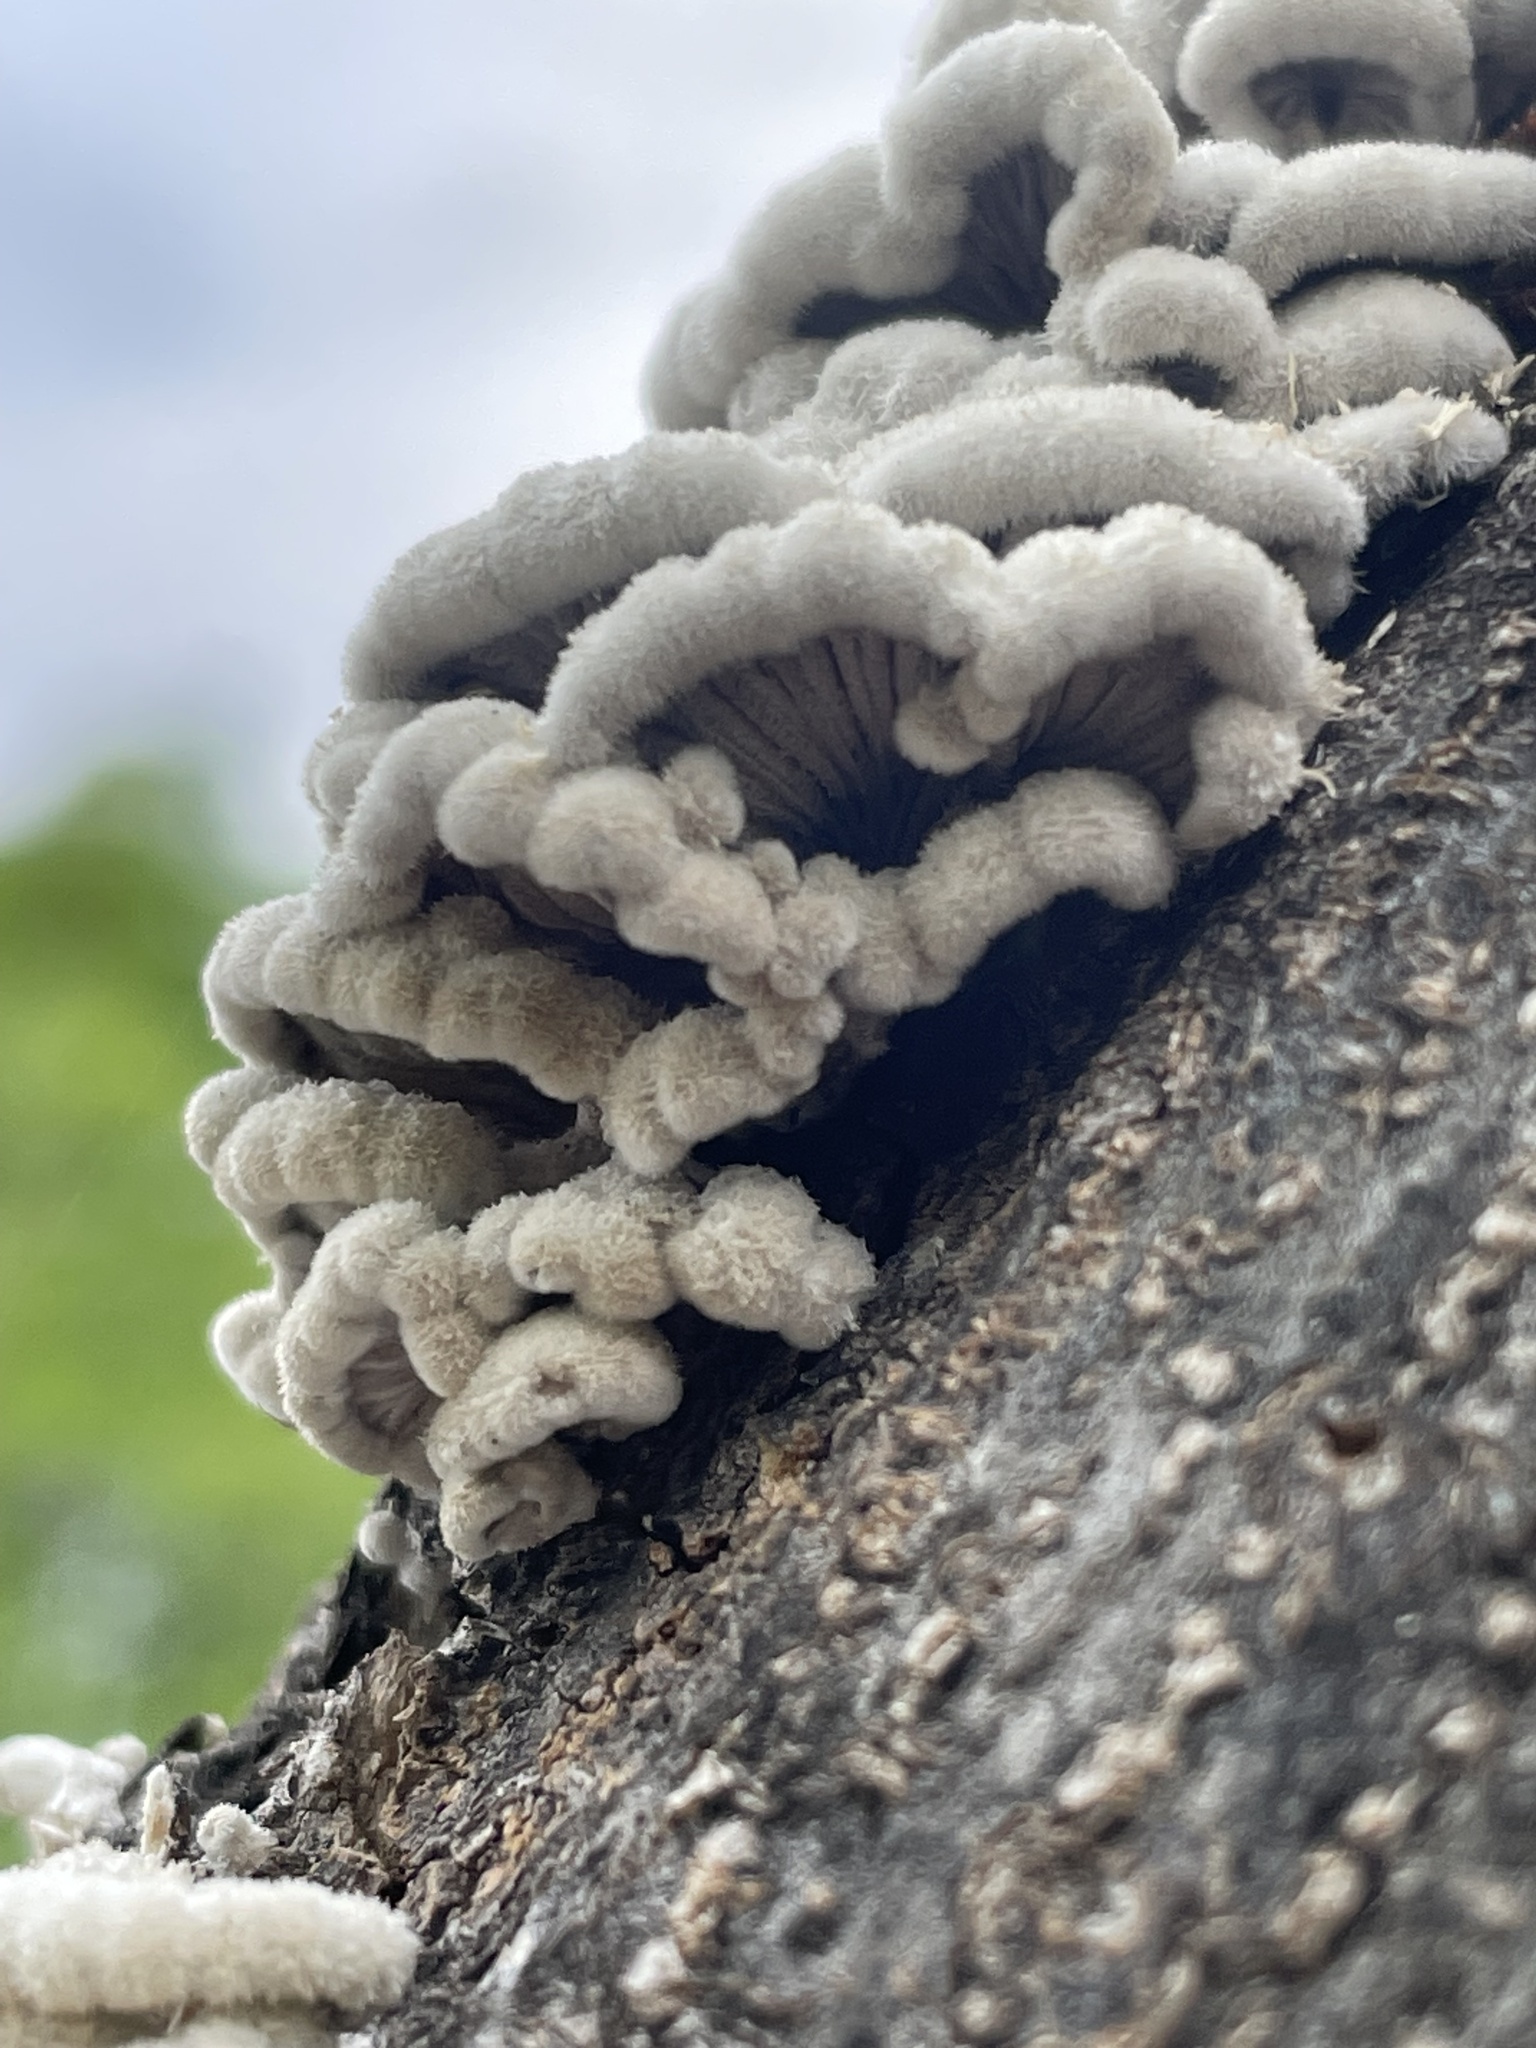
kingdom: Fungi
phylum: Basidiomycota
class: Agaricomycetes
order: Agaricales
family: Schizophyllaceae
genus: Schizophyllum
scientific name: Schizophyllum commune
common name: Common porecrust
